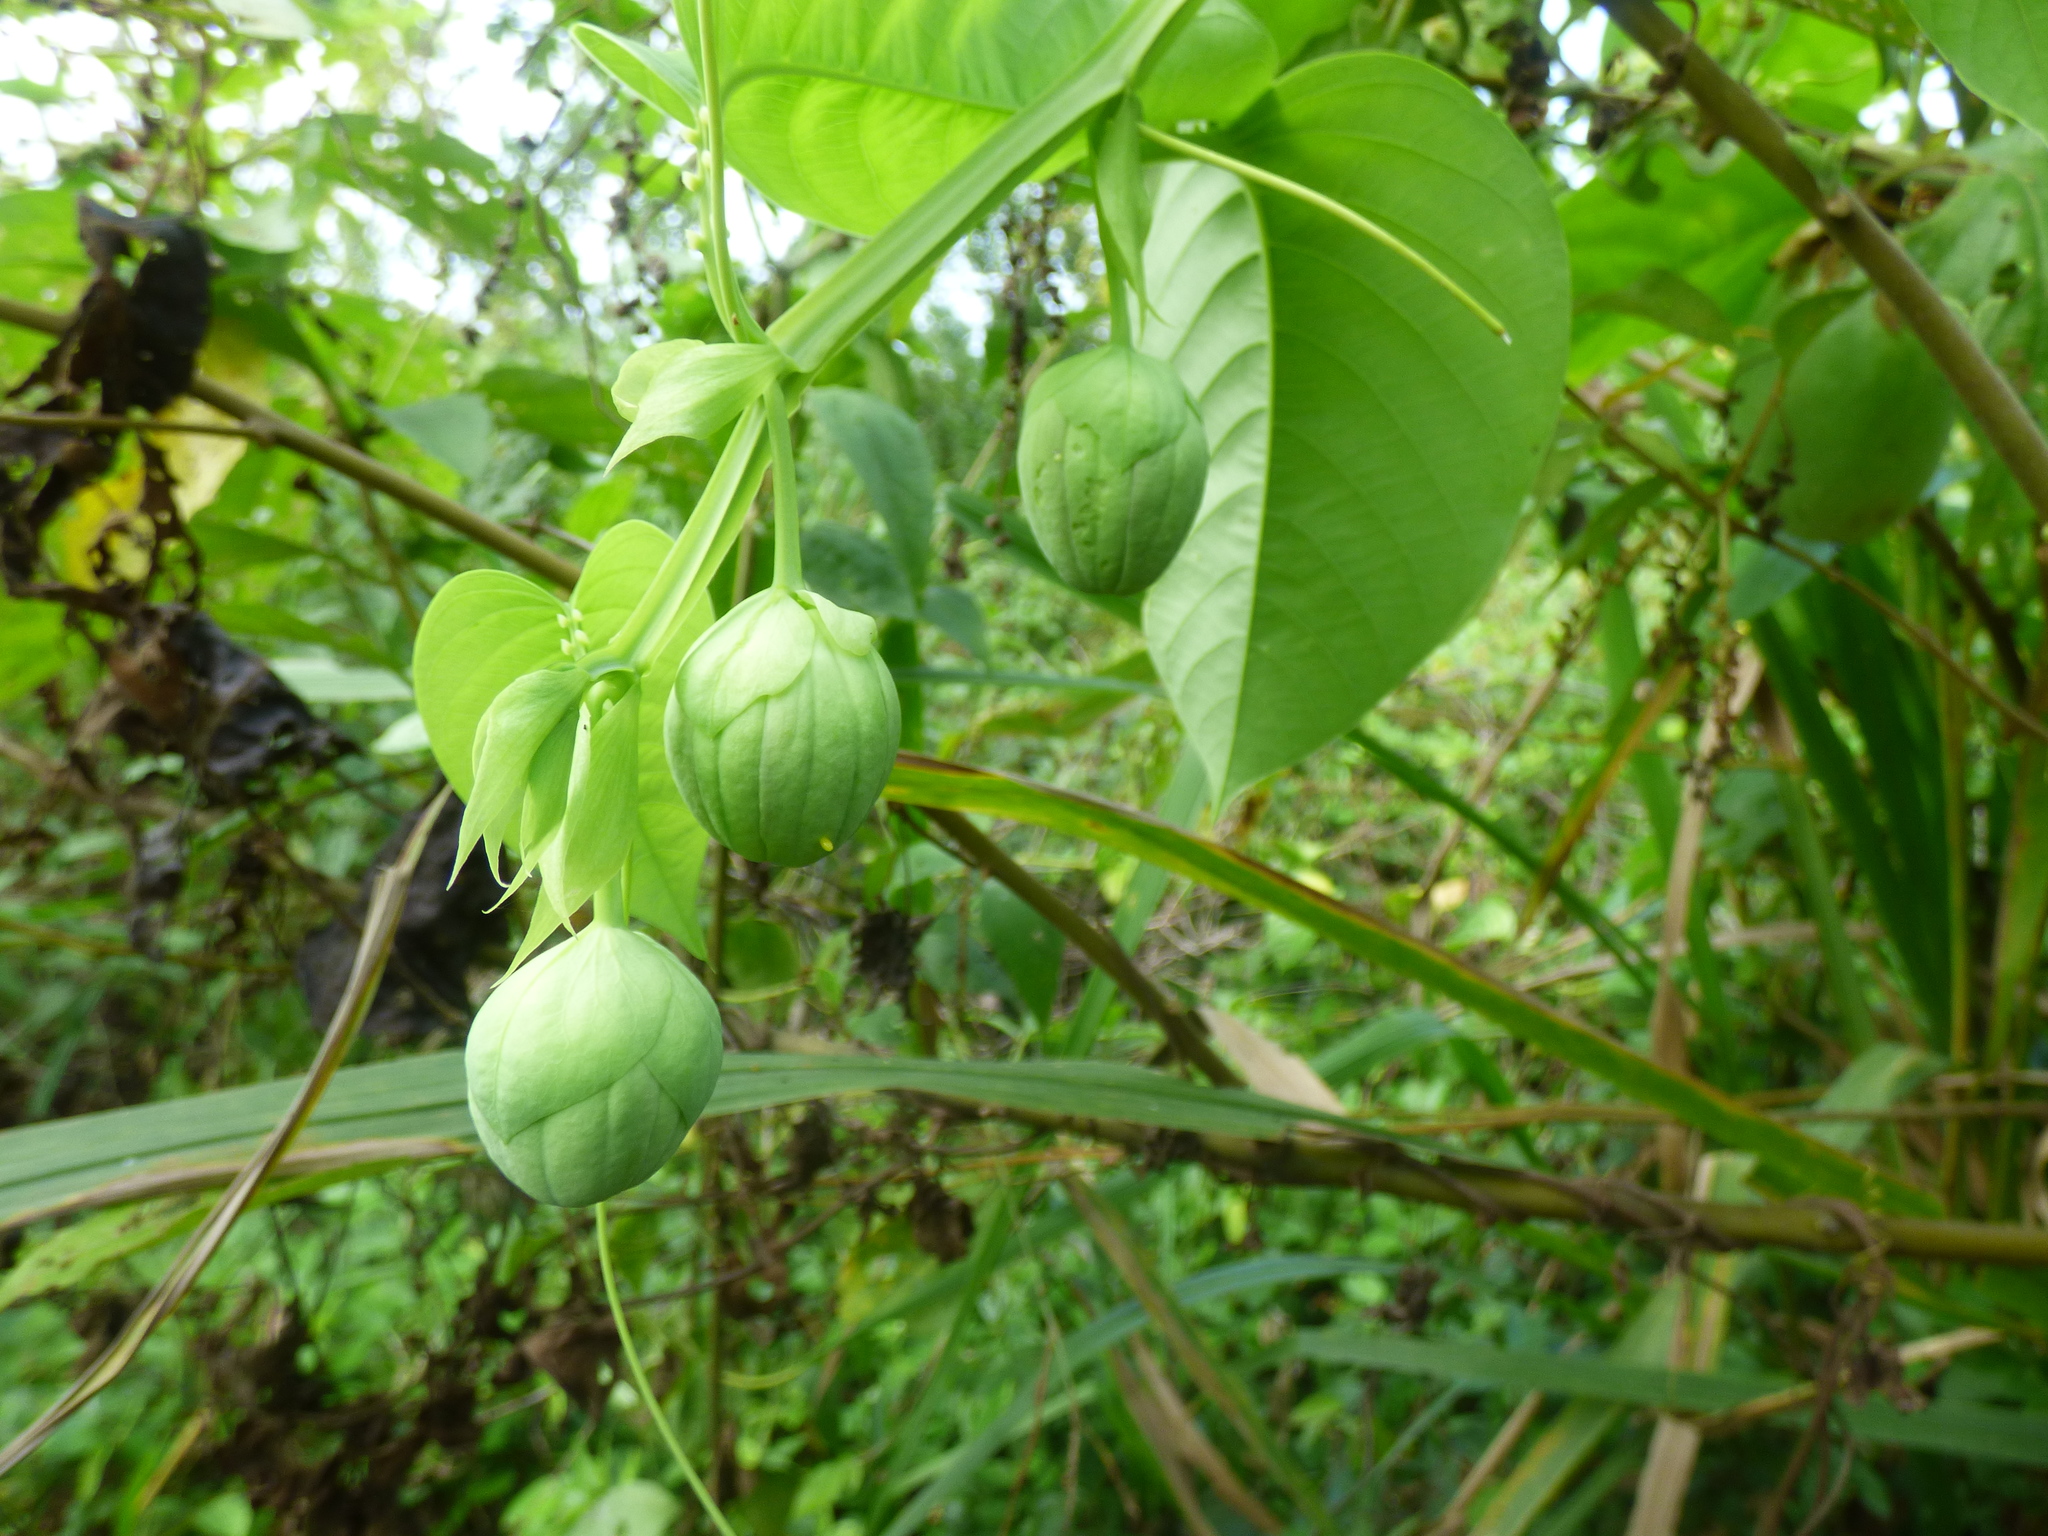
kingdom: Plantae
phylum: Tracheophyta
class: Magnoliopsida
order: Malpighiales
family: Passifloraceae
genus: Passiflora
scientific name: Passiflora quadrangularis
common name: Giant granadilla
